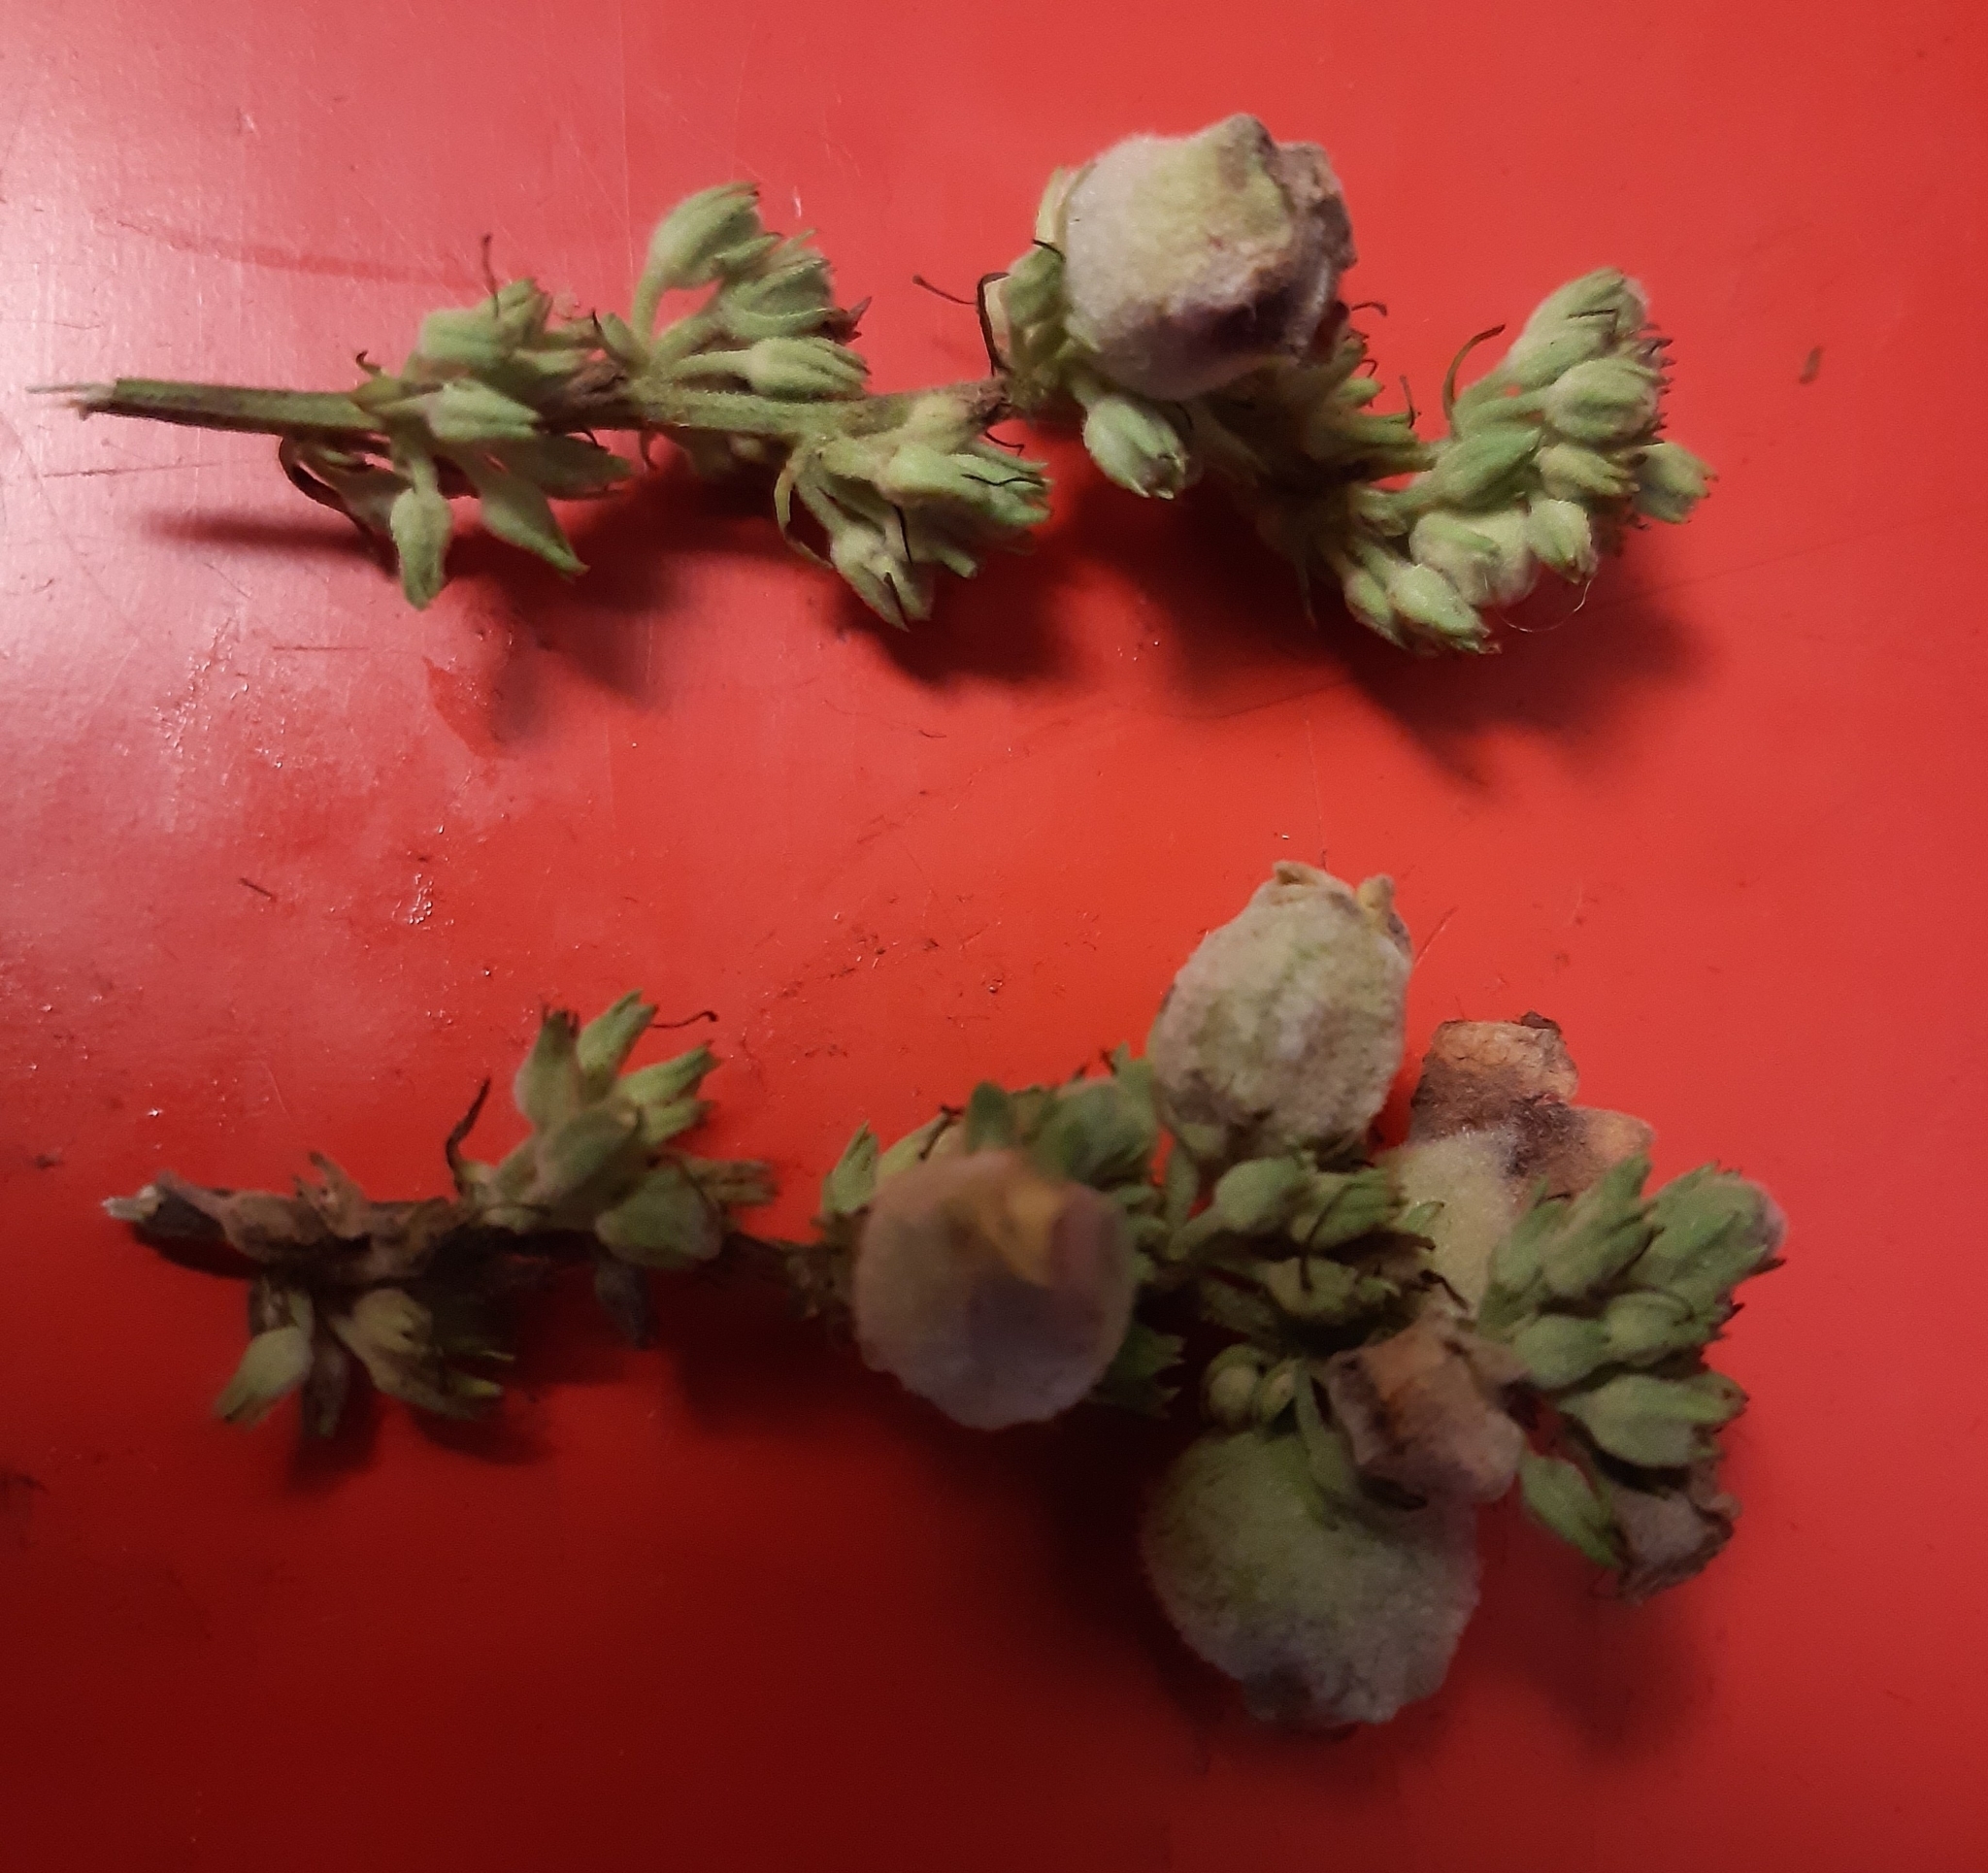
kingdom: Animalia
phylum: Arthropoda
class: Insecta
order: Diptera
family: Cecidomyiidae
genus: Asphondylia
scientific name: Asphondylia verbasci
